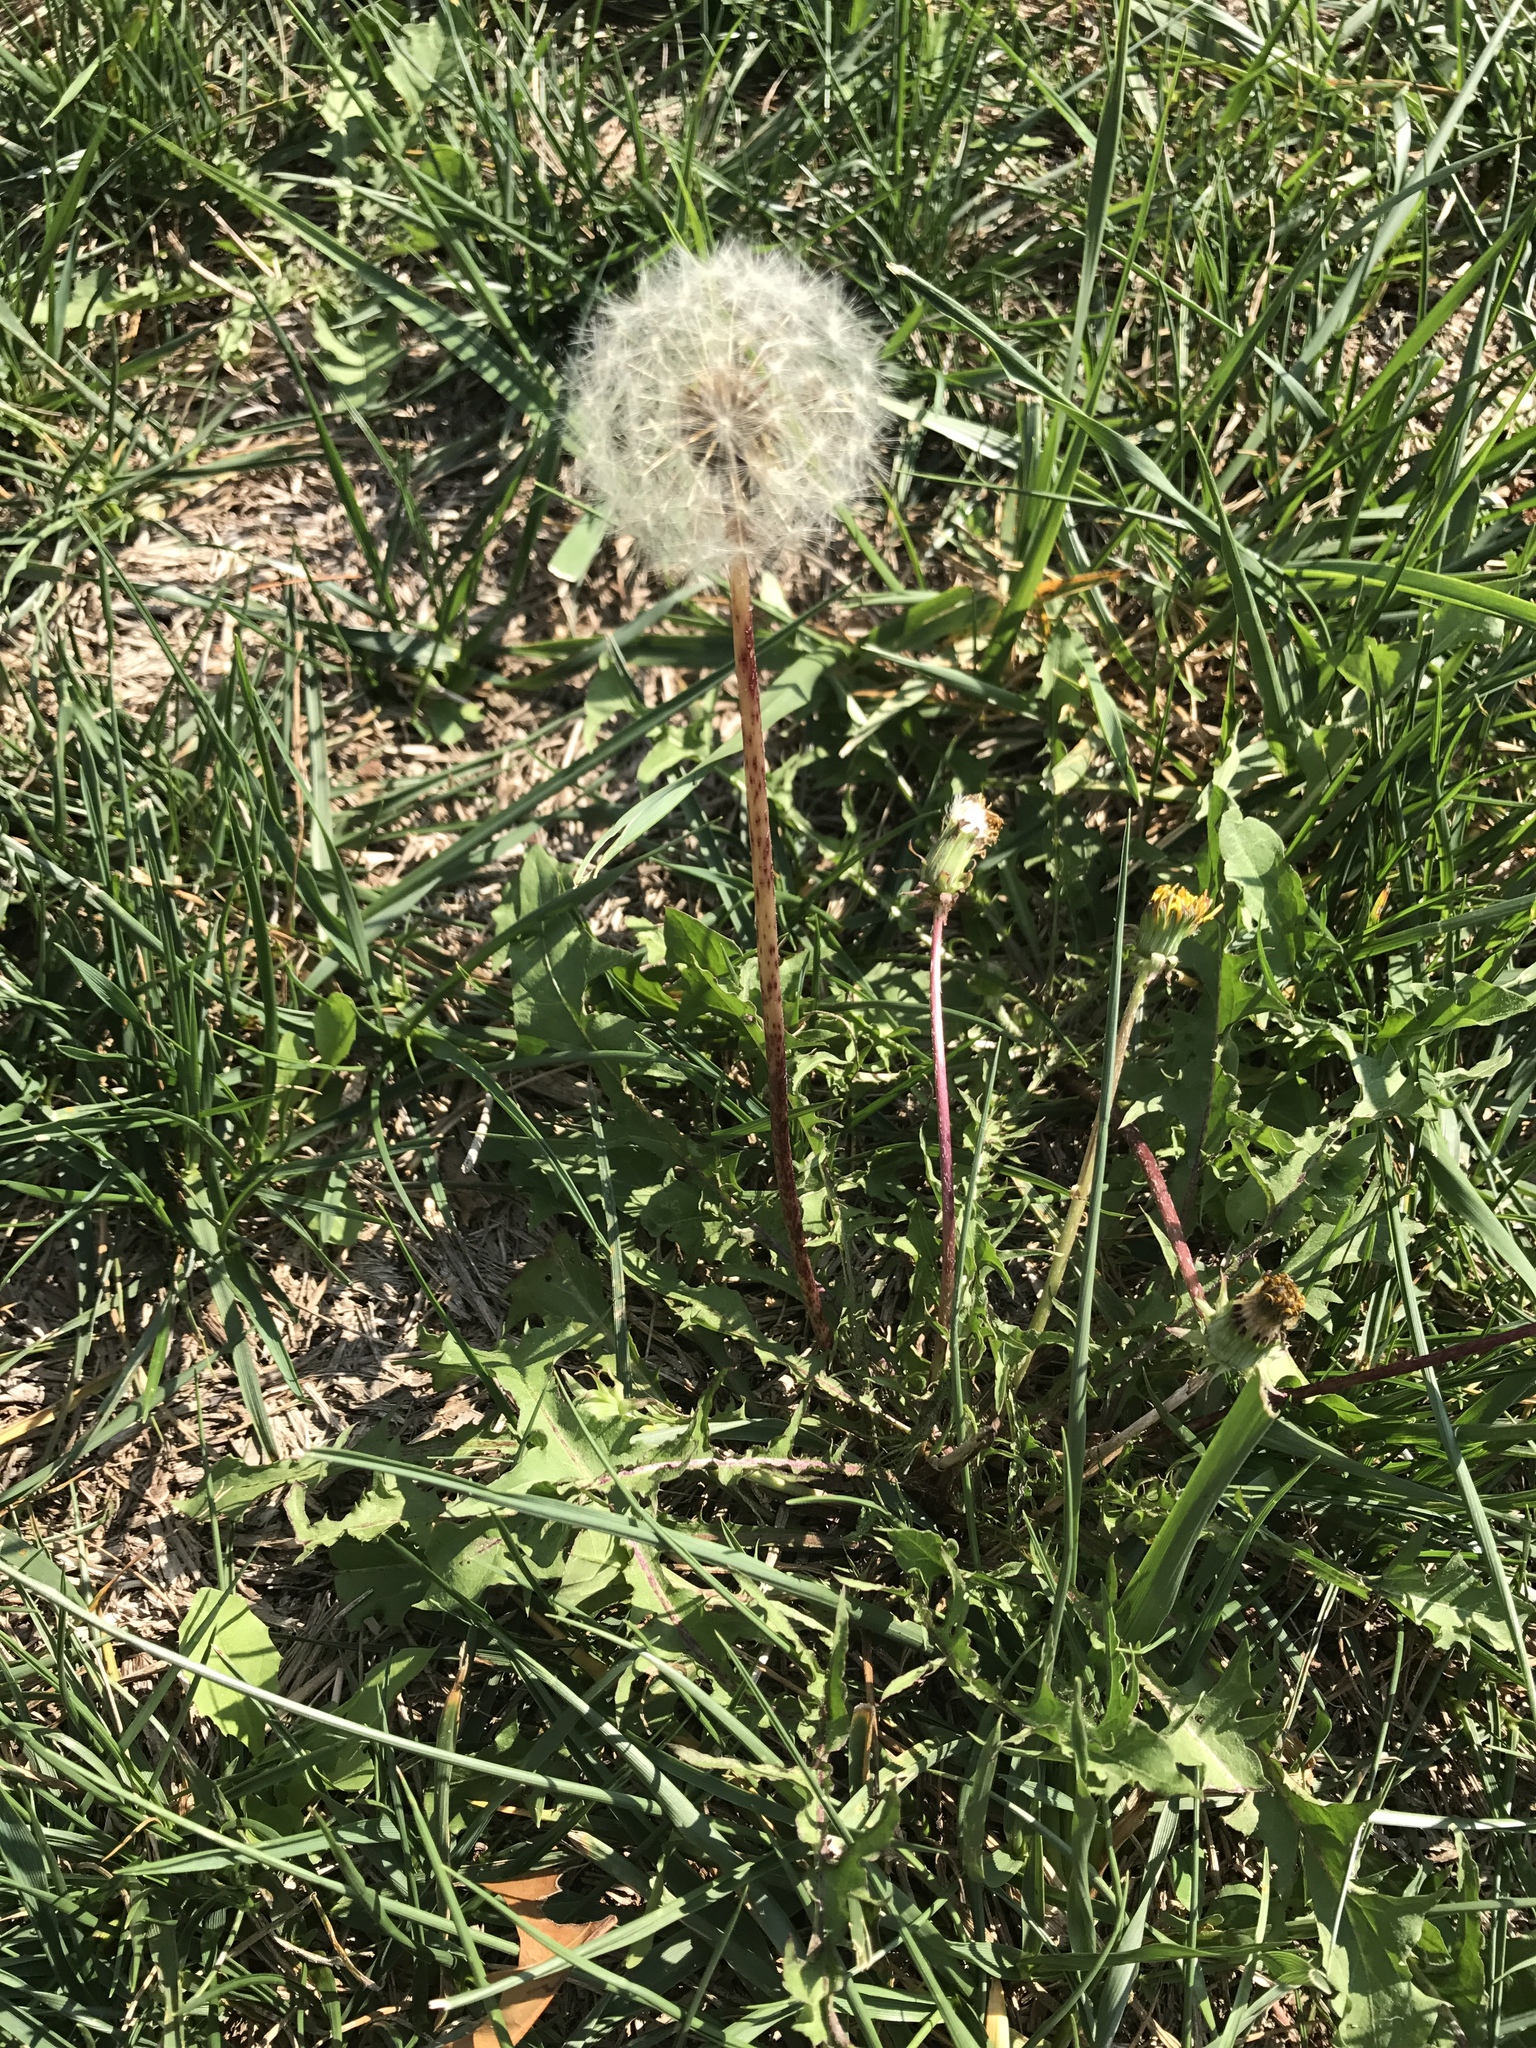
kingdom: Plantae
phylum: Tracheophyta
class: Magnoliopsida
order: Asterales
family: Asteraceae
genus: Taraxacum
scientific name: Taraxacum officinale
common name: Common dandelion
